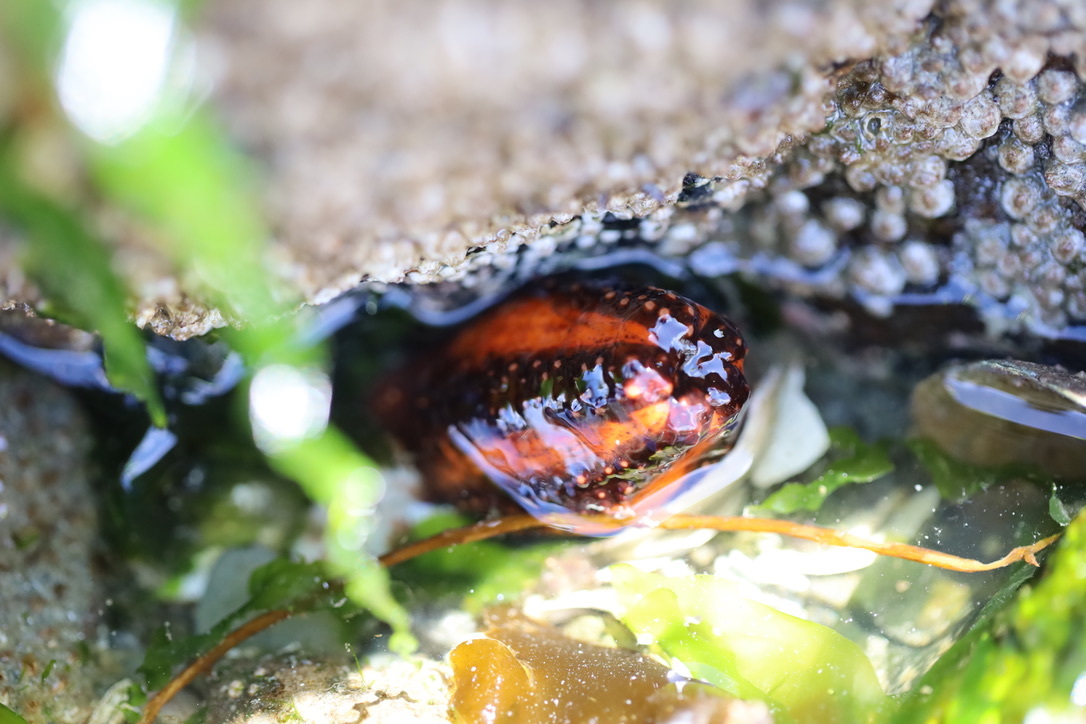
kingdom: Animalia
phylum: Echinodermata
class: Holothuroidea
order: Dendrochirotida
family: Cucumariidae
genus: Cucumaria
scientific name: Cucumaria miniata
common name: Orange sea cucumber
